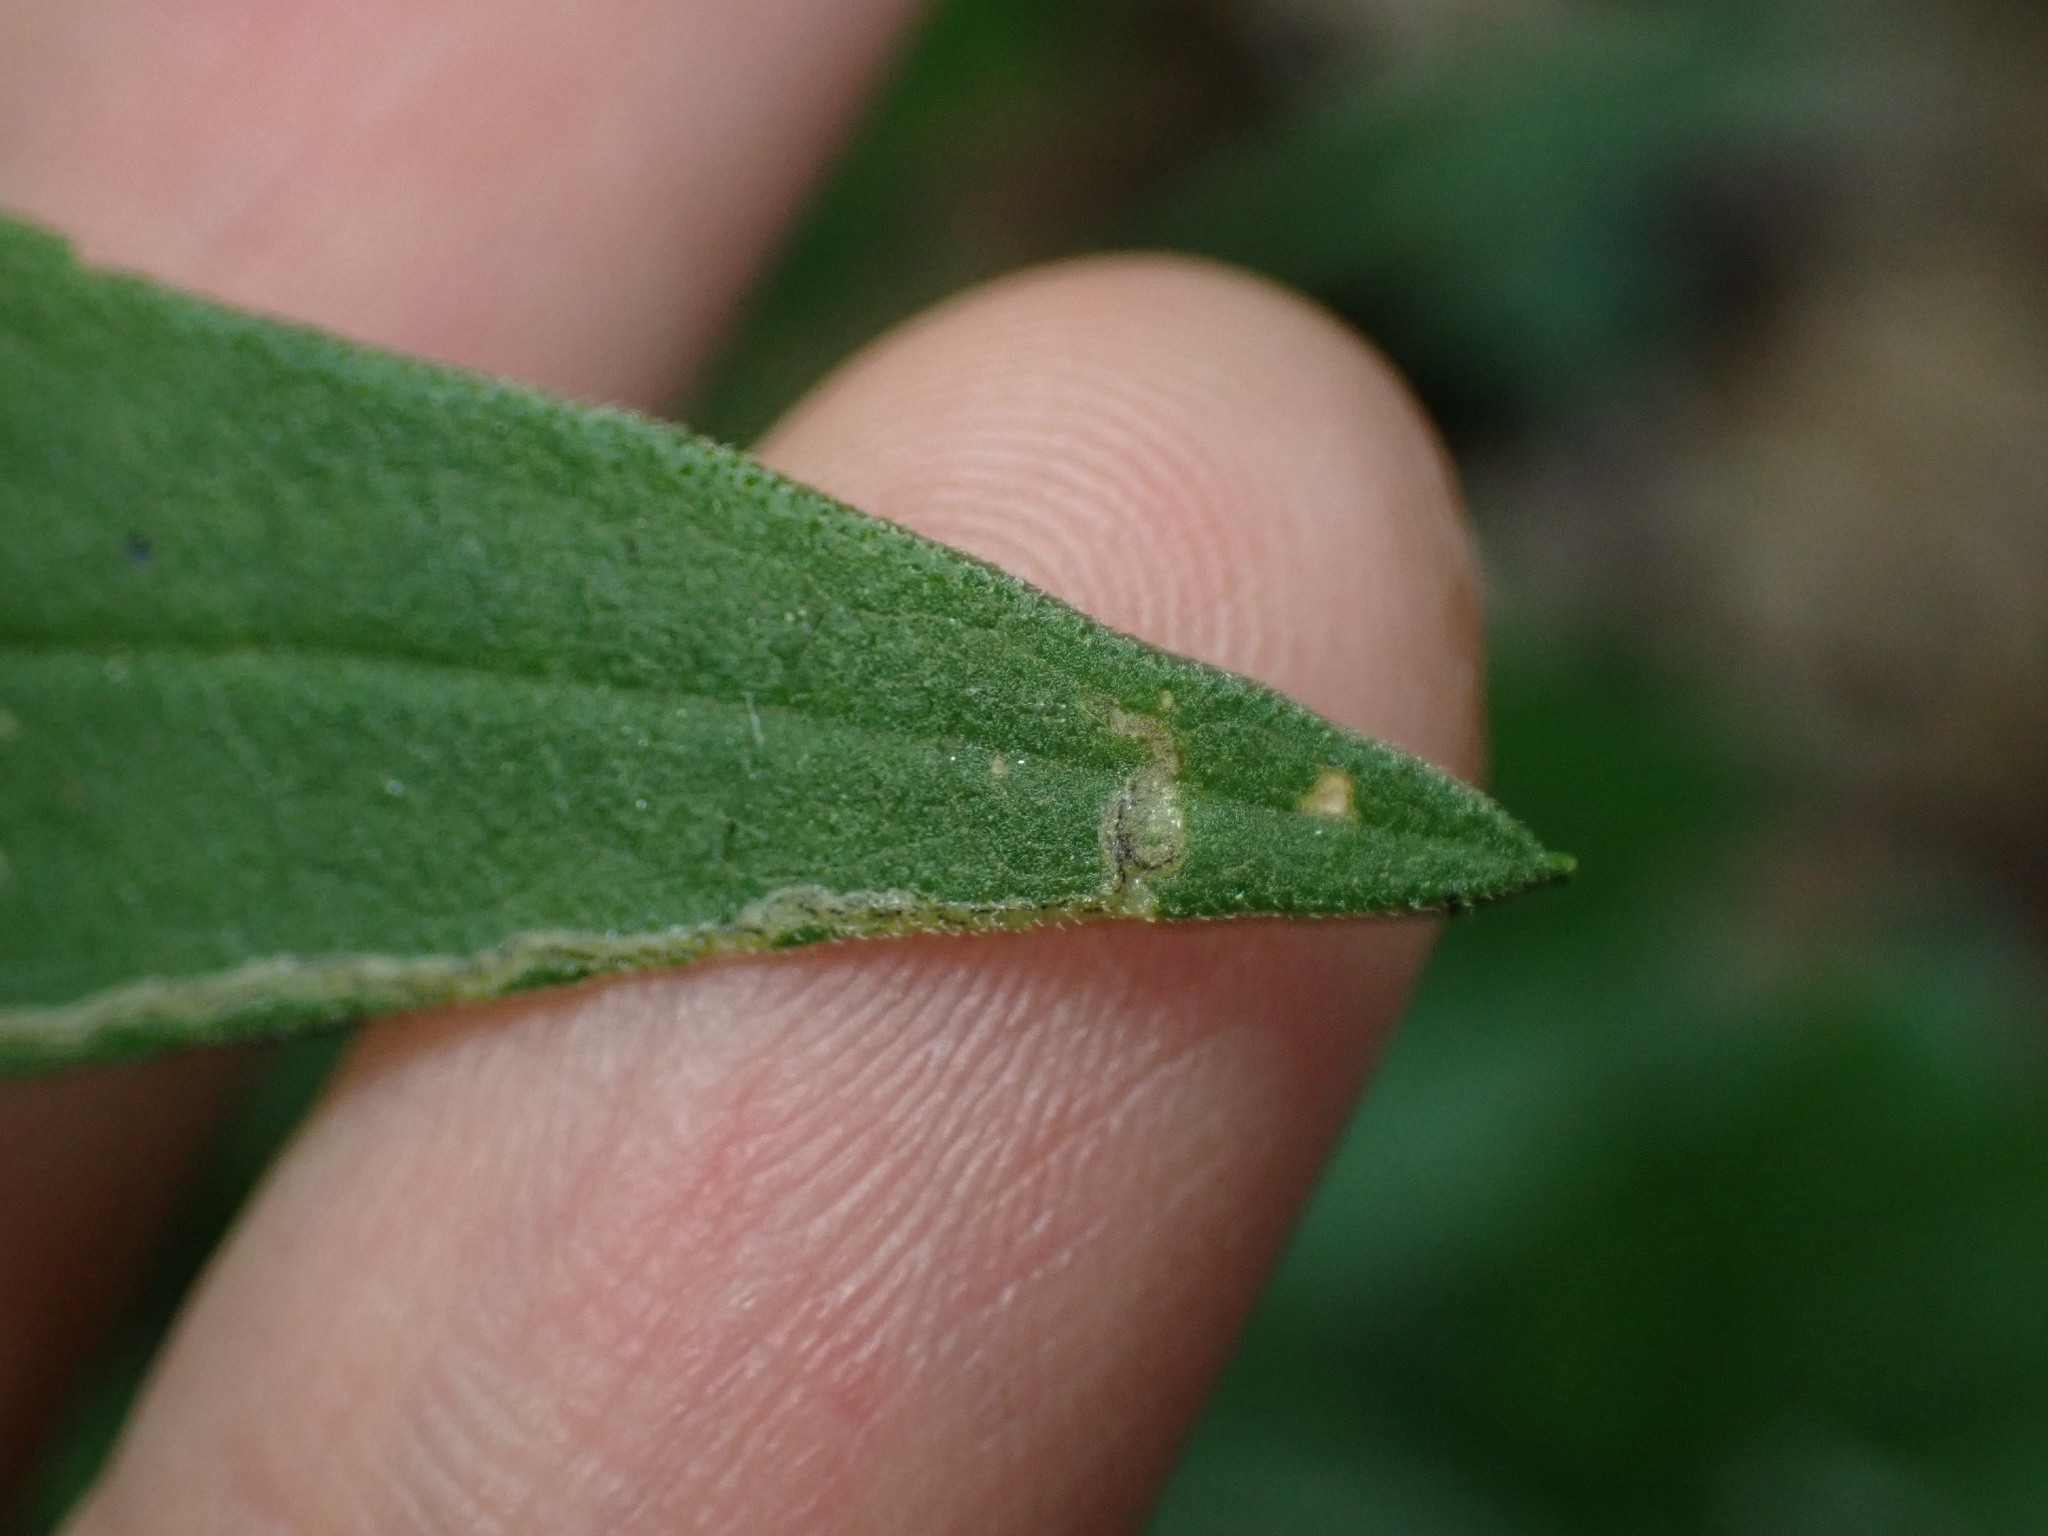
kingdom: Animalia
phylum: Arthropoda
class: Insecta
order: Diptera
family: Agromyzidae
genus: Liriomyza
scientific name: Liriomyza eupatorii
